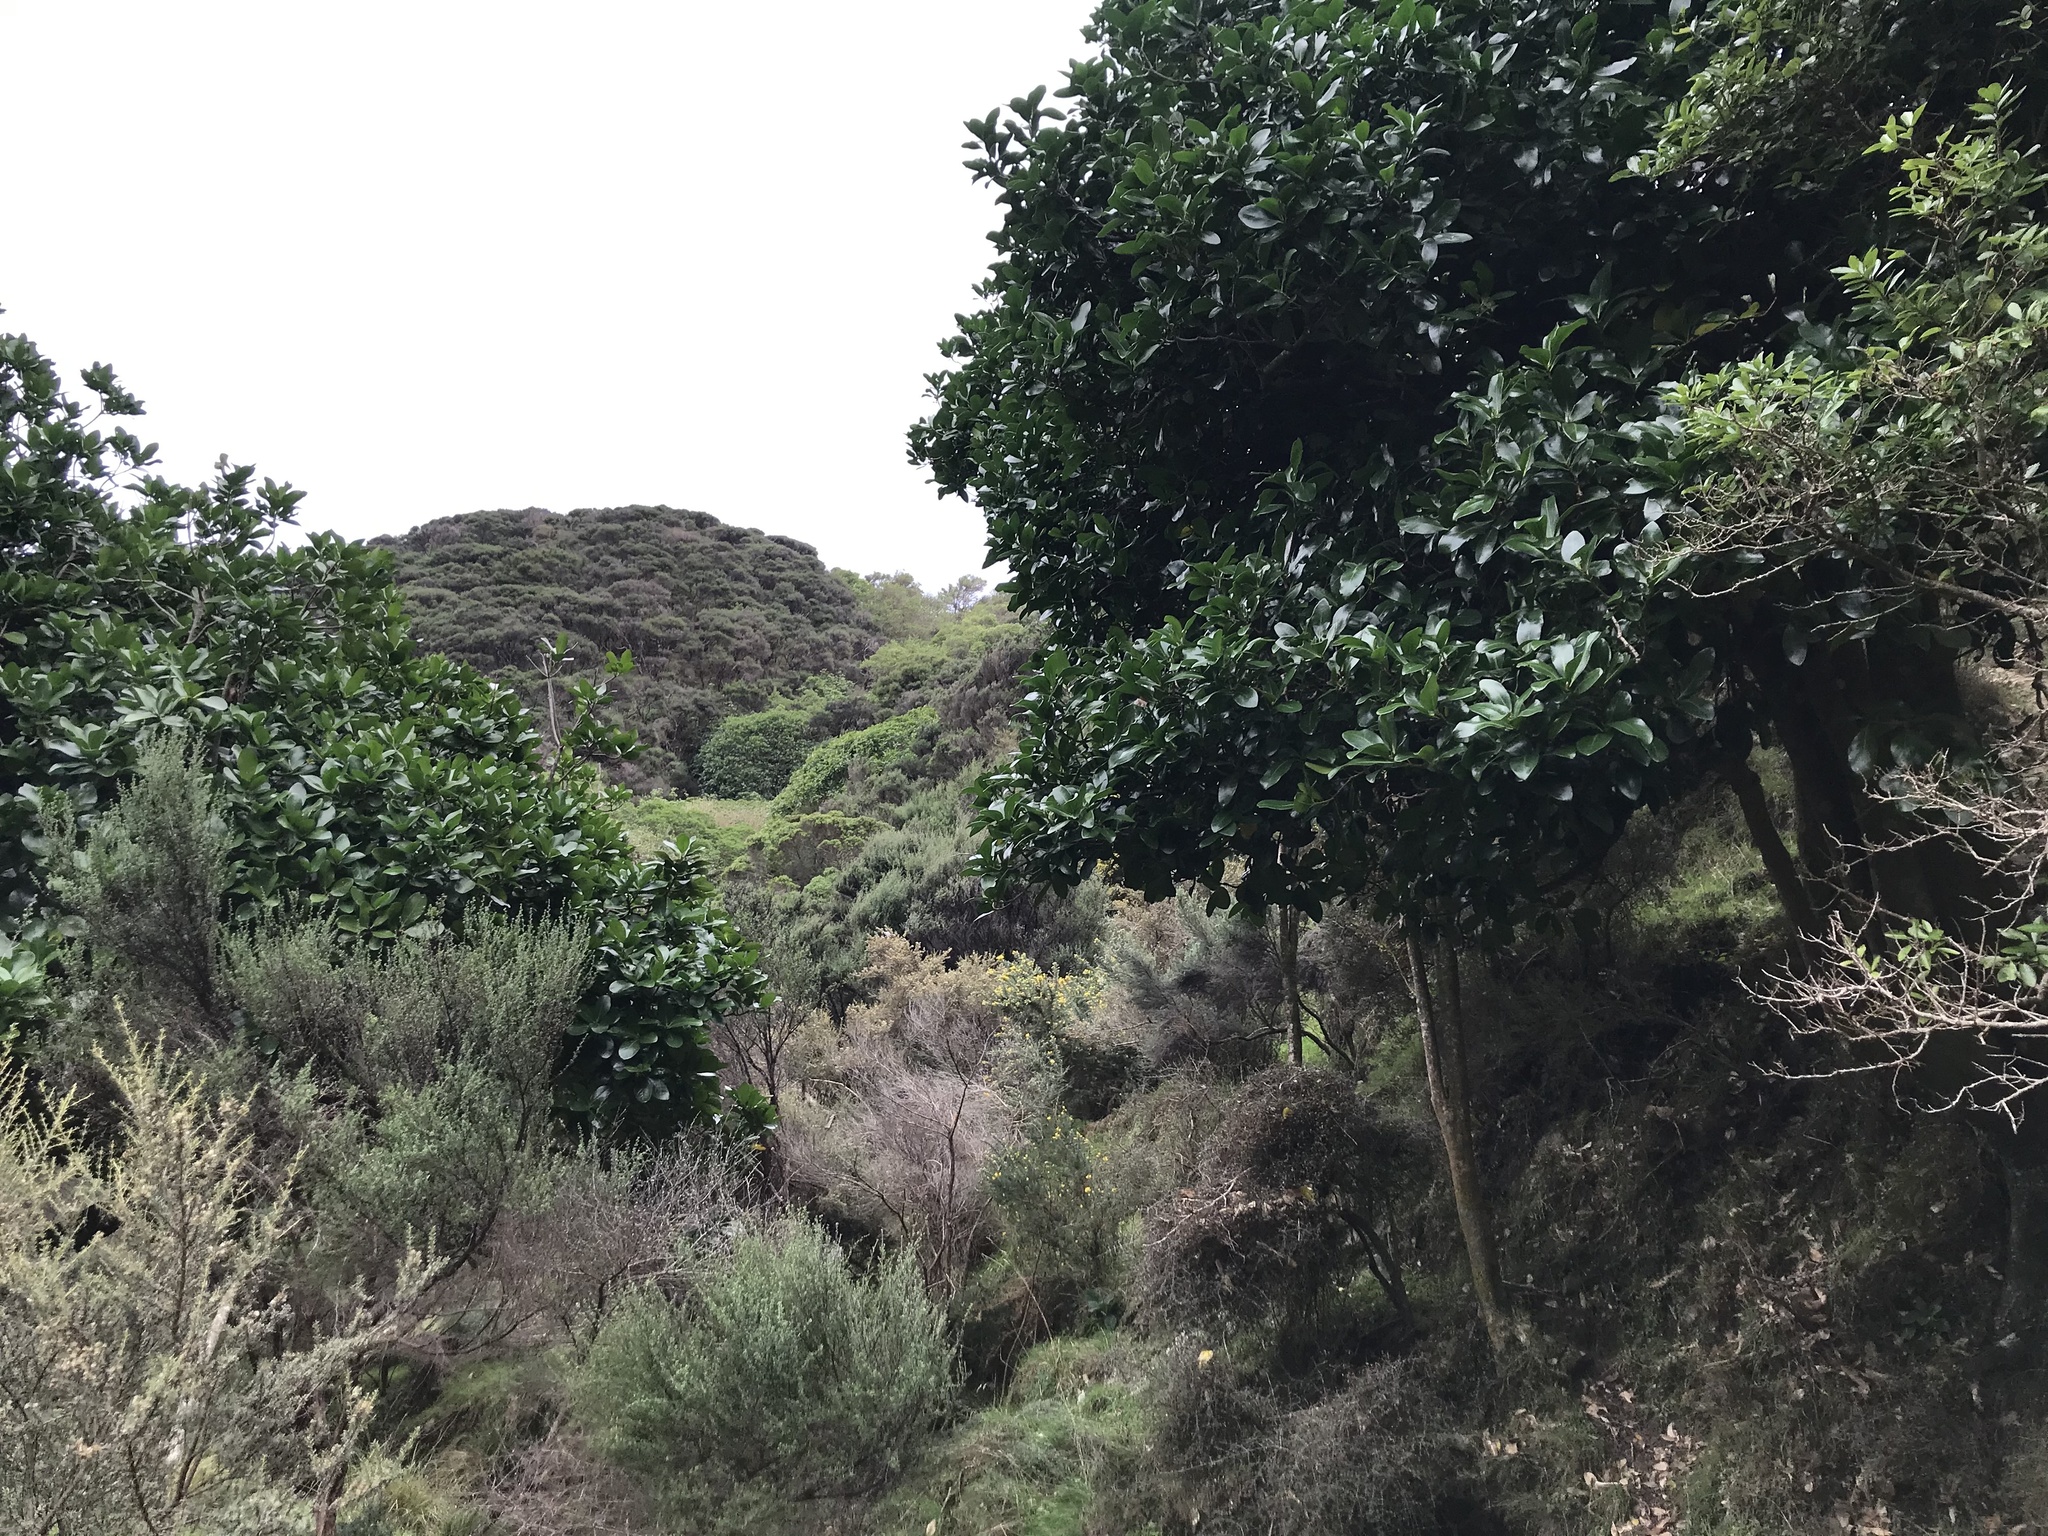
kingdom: Plantae
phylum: Tracheophyta
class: Magnoliopsida
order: Cucurbitales
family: Corynocarpaceae
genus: Corynocarpus
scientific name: Corynocarpus laevigatus
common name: New zealand laurel
